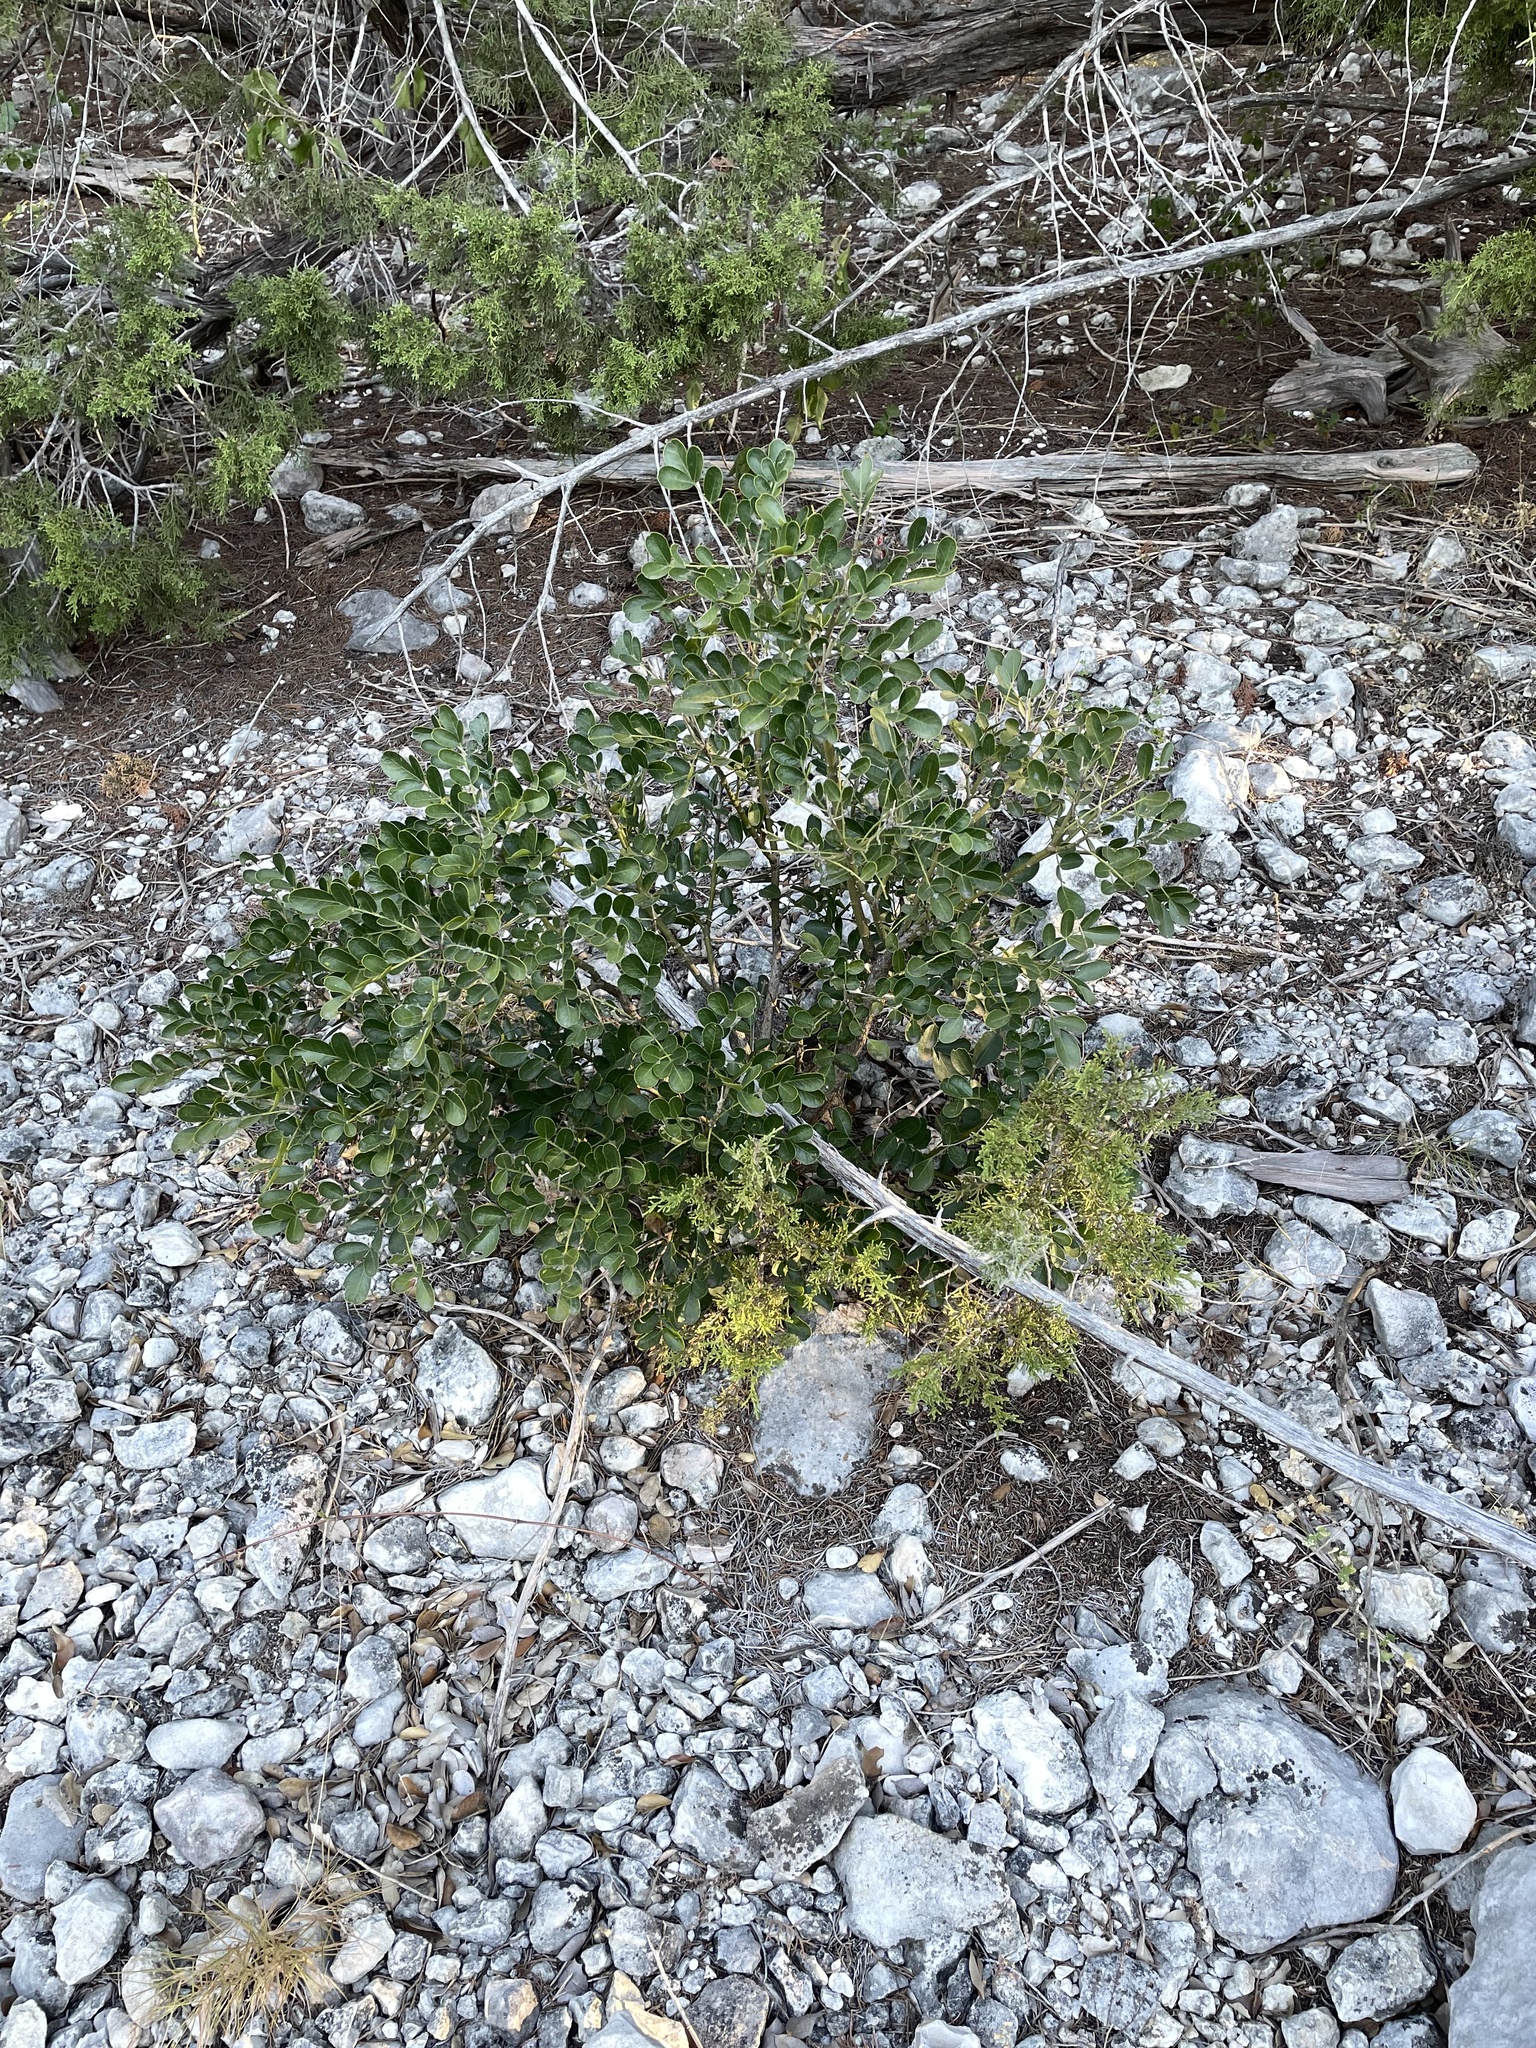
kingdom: Plantae
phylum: Tracheophyta
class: Magnoliopsida
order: Fabales
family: Fabaceae
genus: Dermatophyllum
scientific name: Dermatophyllum secundiflorum
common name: Texas-mountain-laurel
